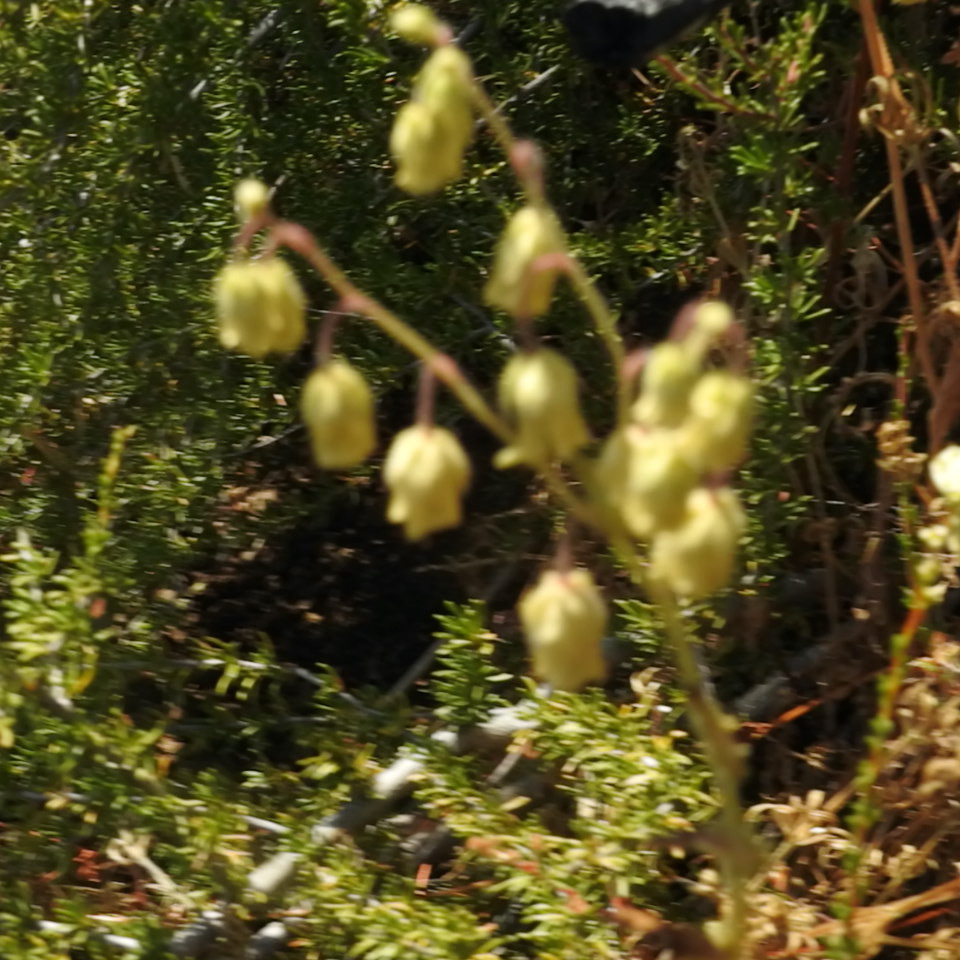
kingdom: Plantae
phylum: Tracheophyta
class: Magnoliopsida
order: Boraginales
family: Hydrophyllaceae
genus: Emmenanthe
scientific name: Emmenanthe penduliflora
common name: Whispering-bells
